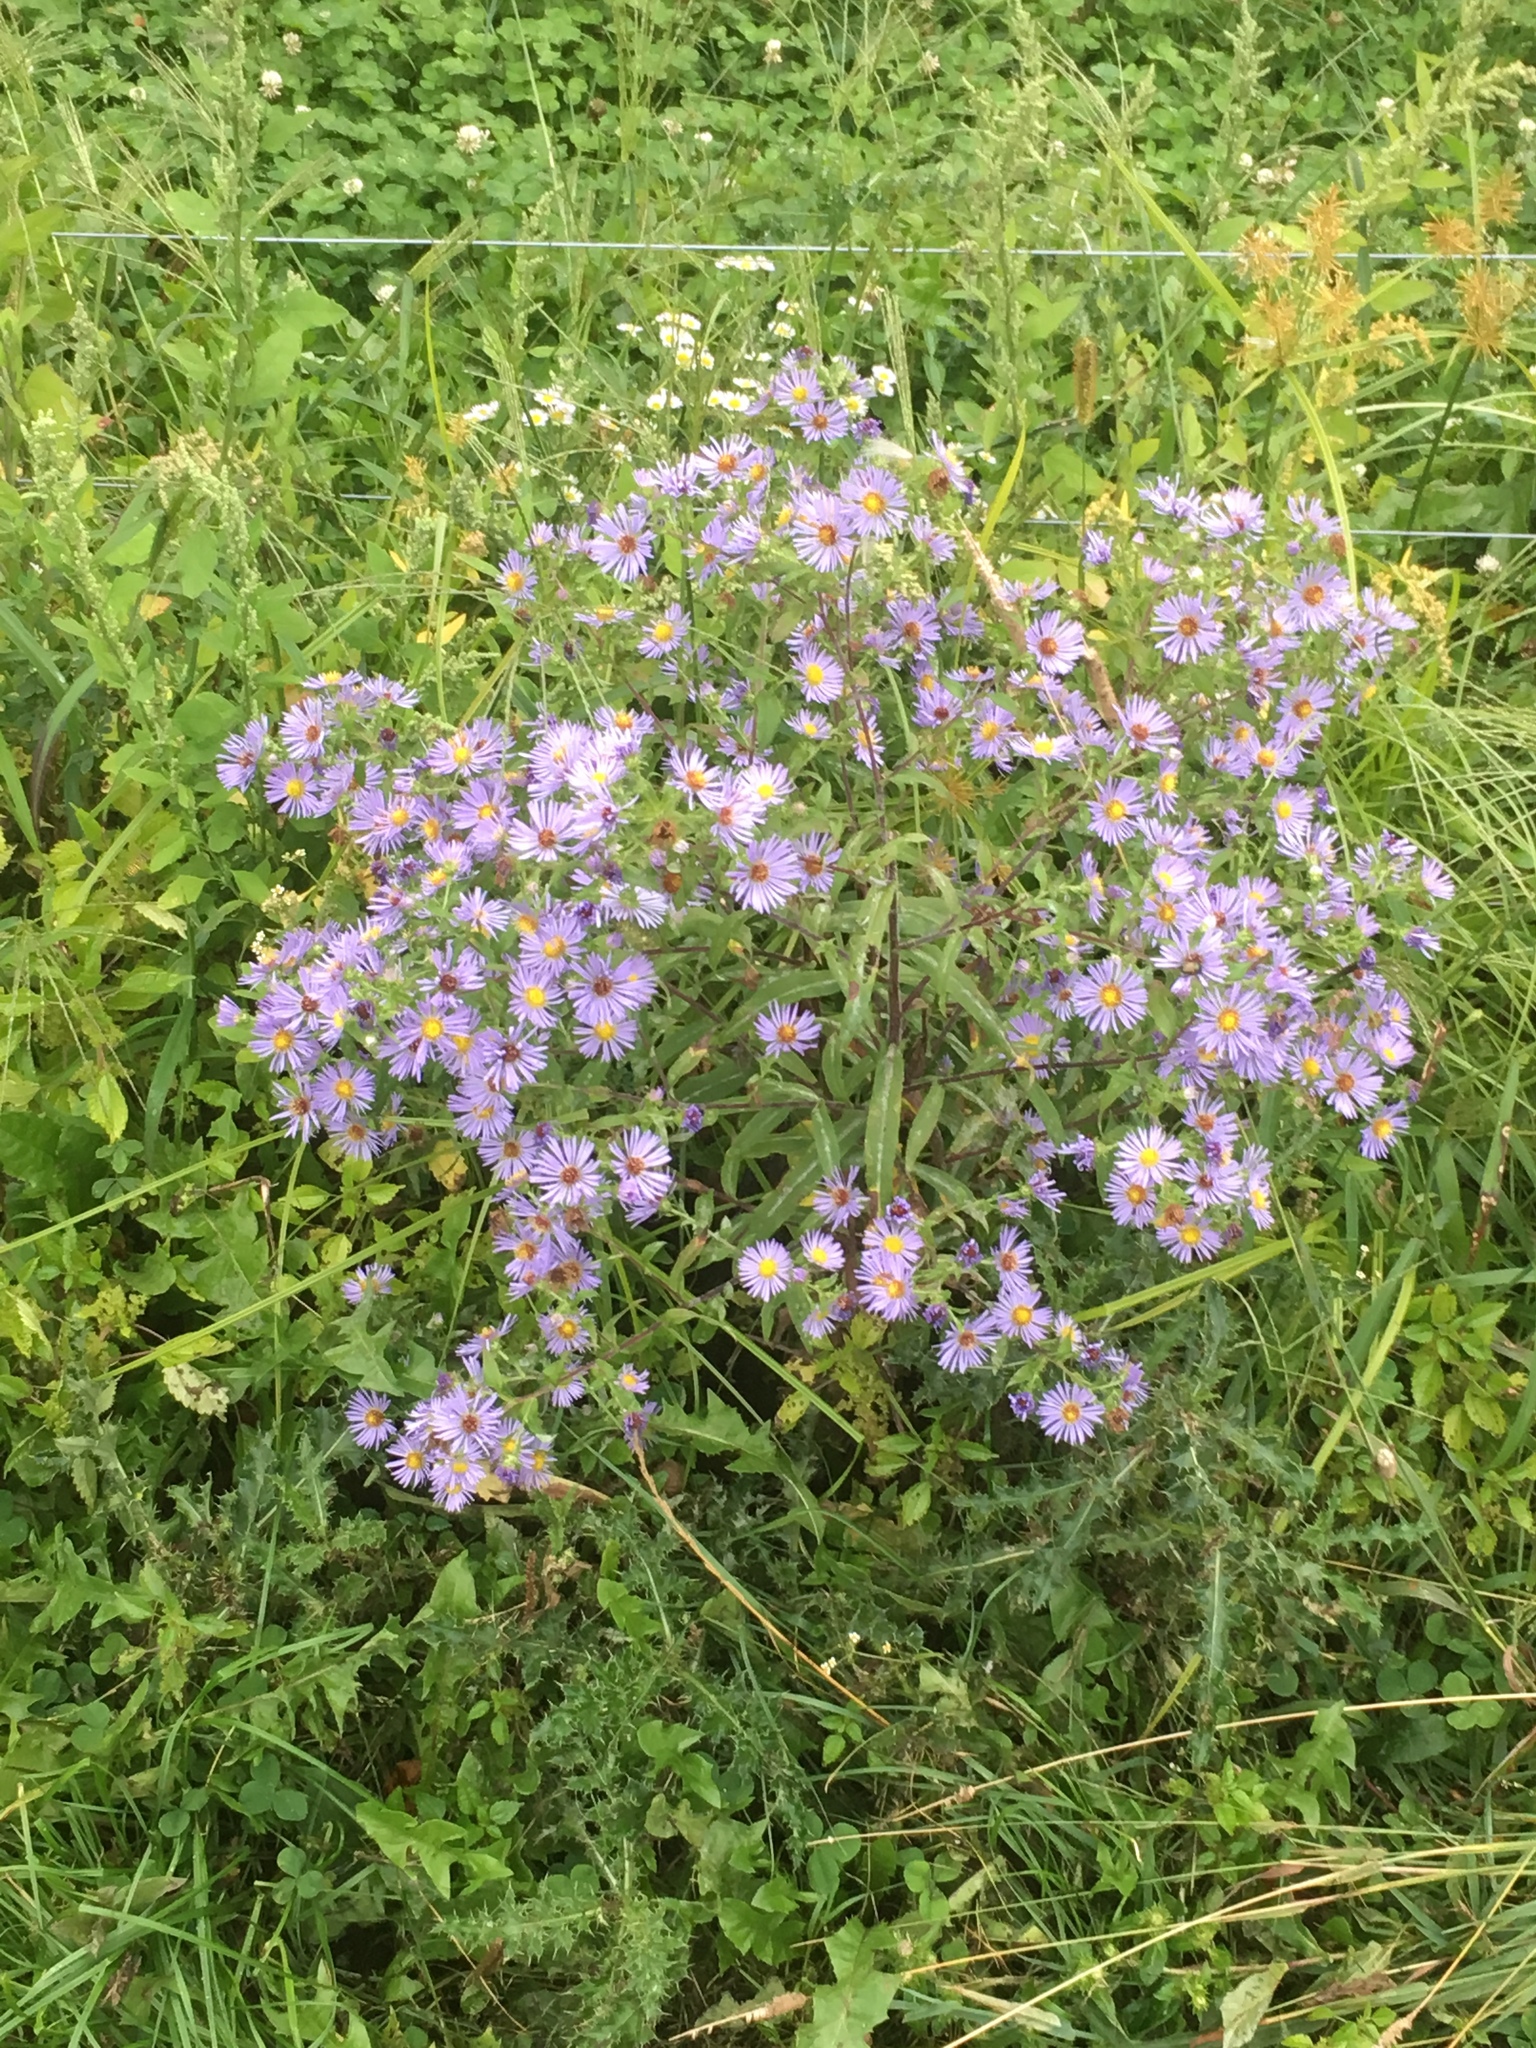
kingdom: Plantae
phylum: Tracheophyta
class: Magnoliopsida
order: Asterales
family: Asteraceae
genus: Symphyotrichum
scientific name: Symphyotrichum puniceum
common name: Bog aster
